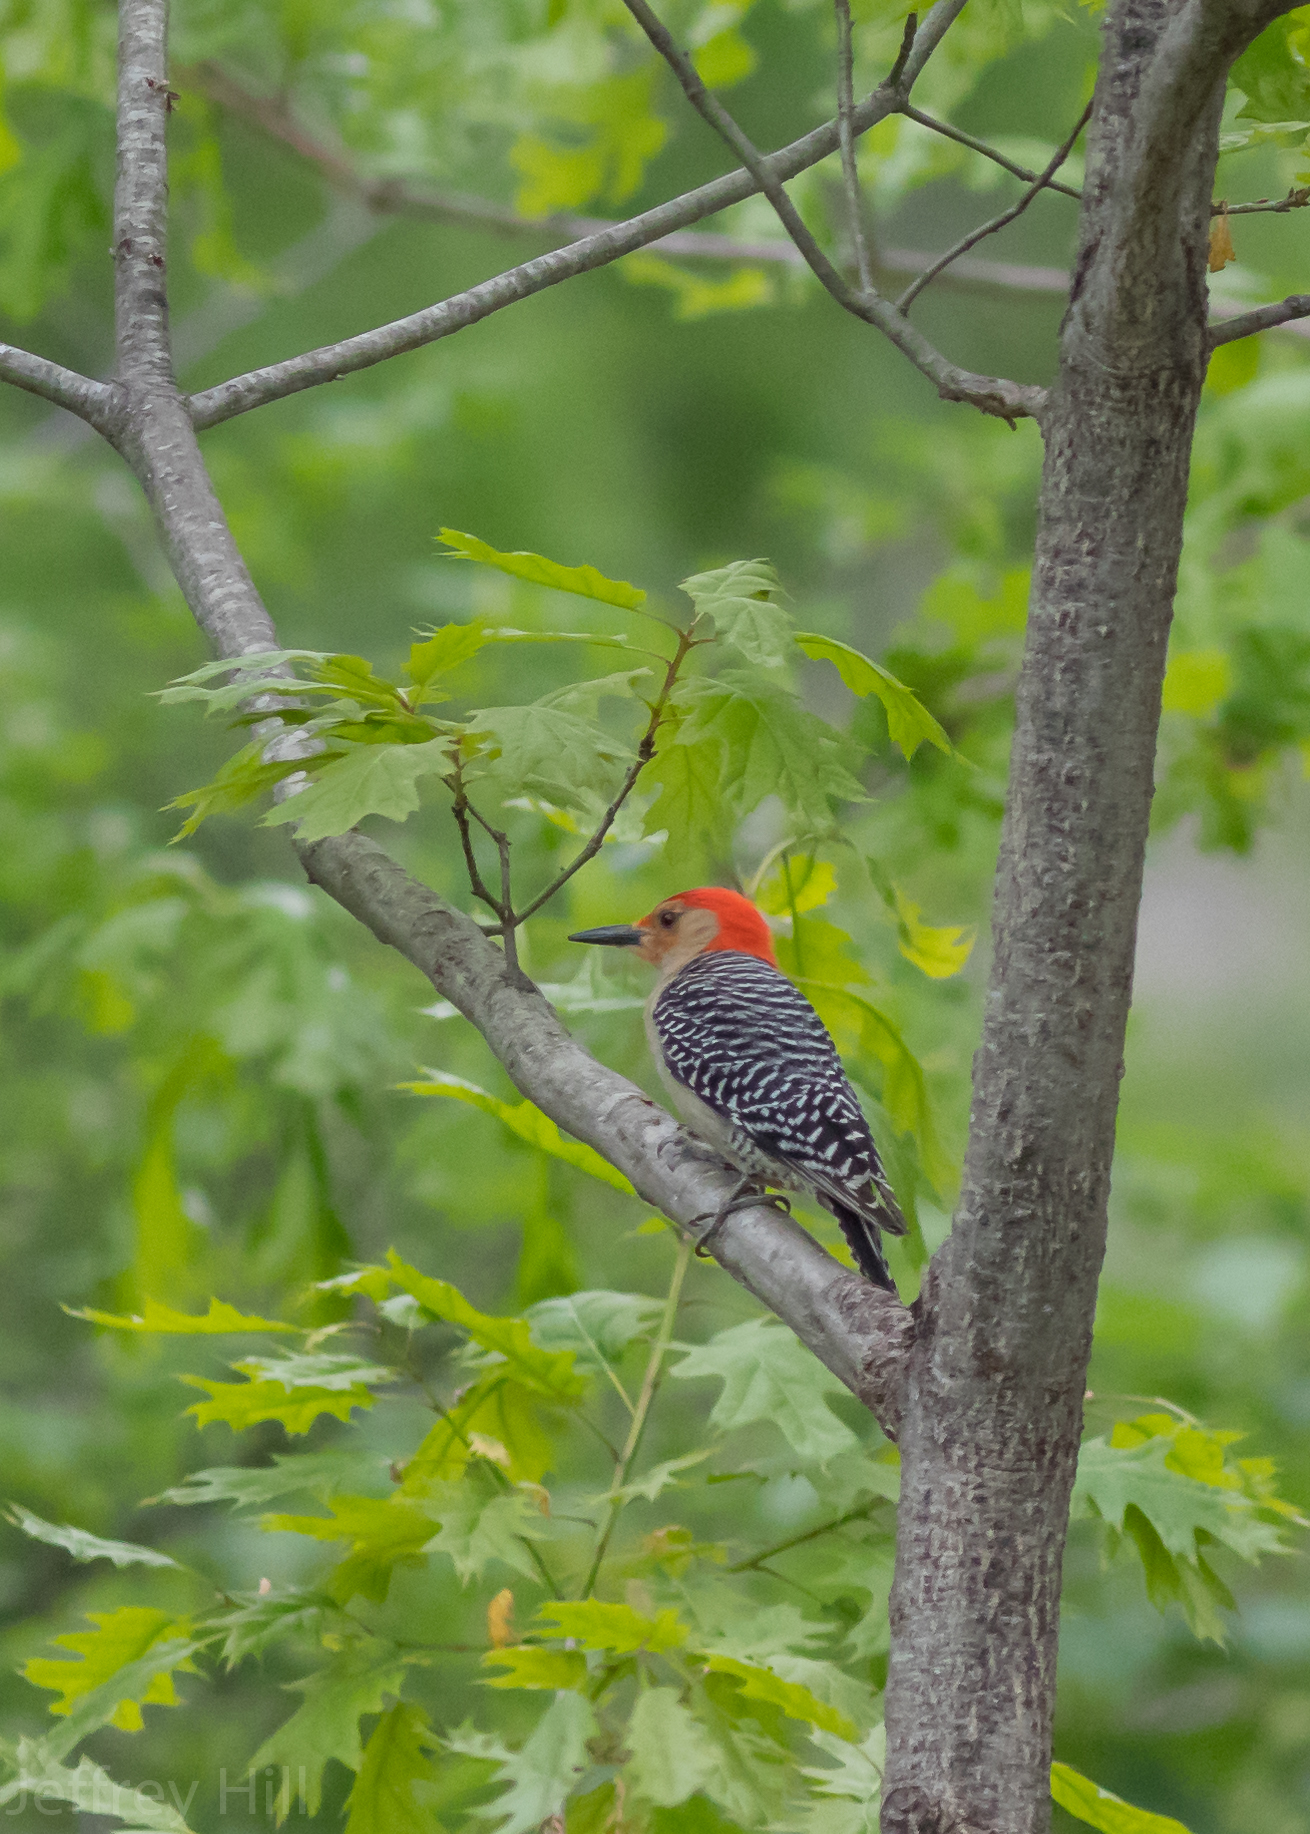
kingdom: Animalia
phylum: Chordata
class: Aves
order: Piciformes
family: Picidae
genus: Melanerpes
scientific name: Melanerpes carolinus
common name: Red-bellied woodpecker
